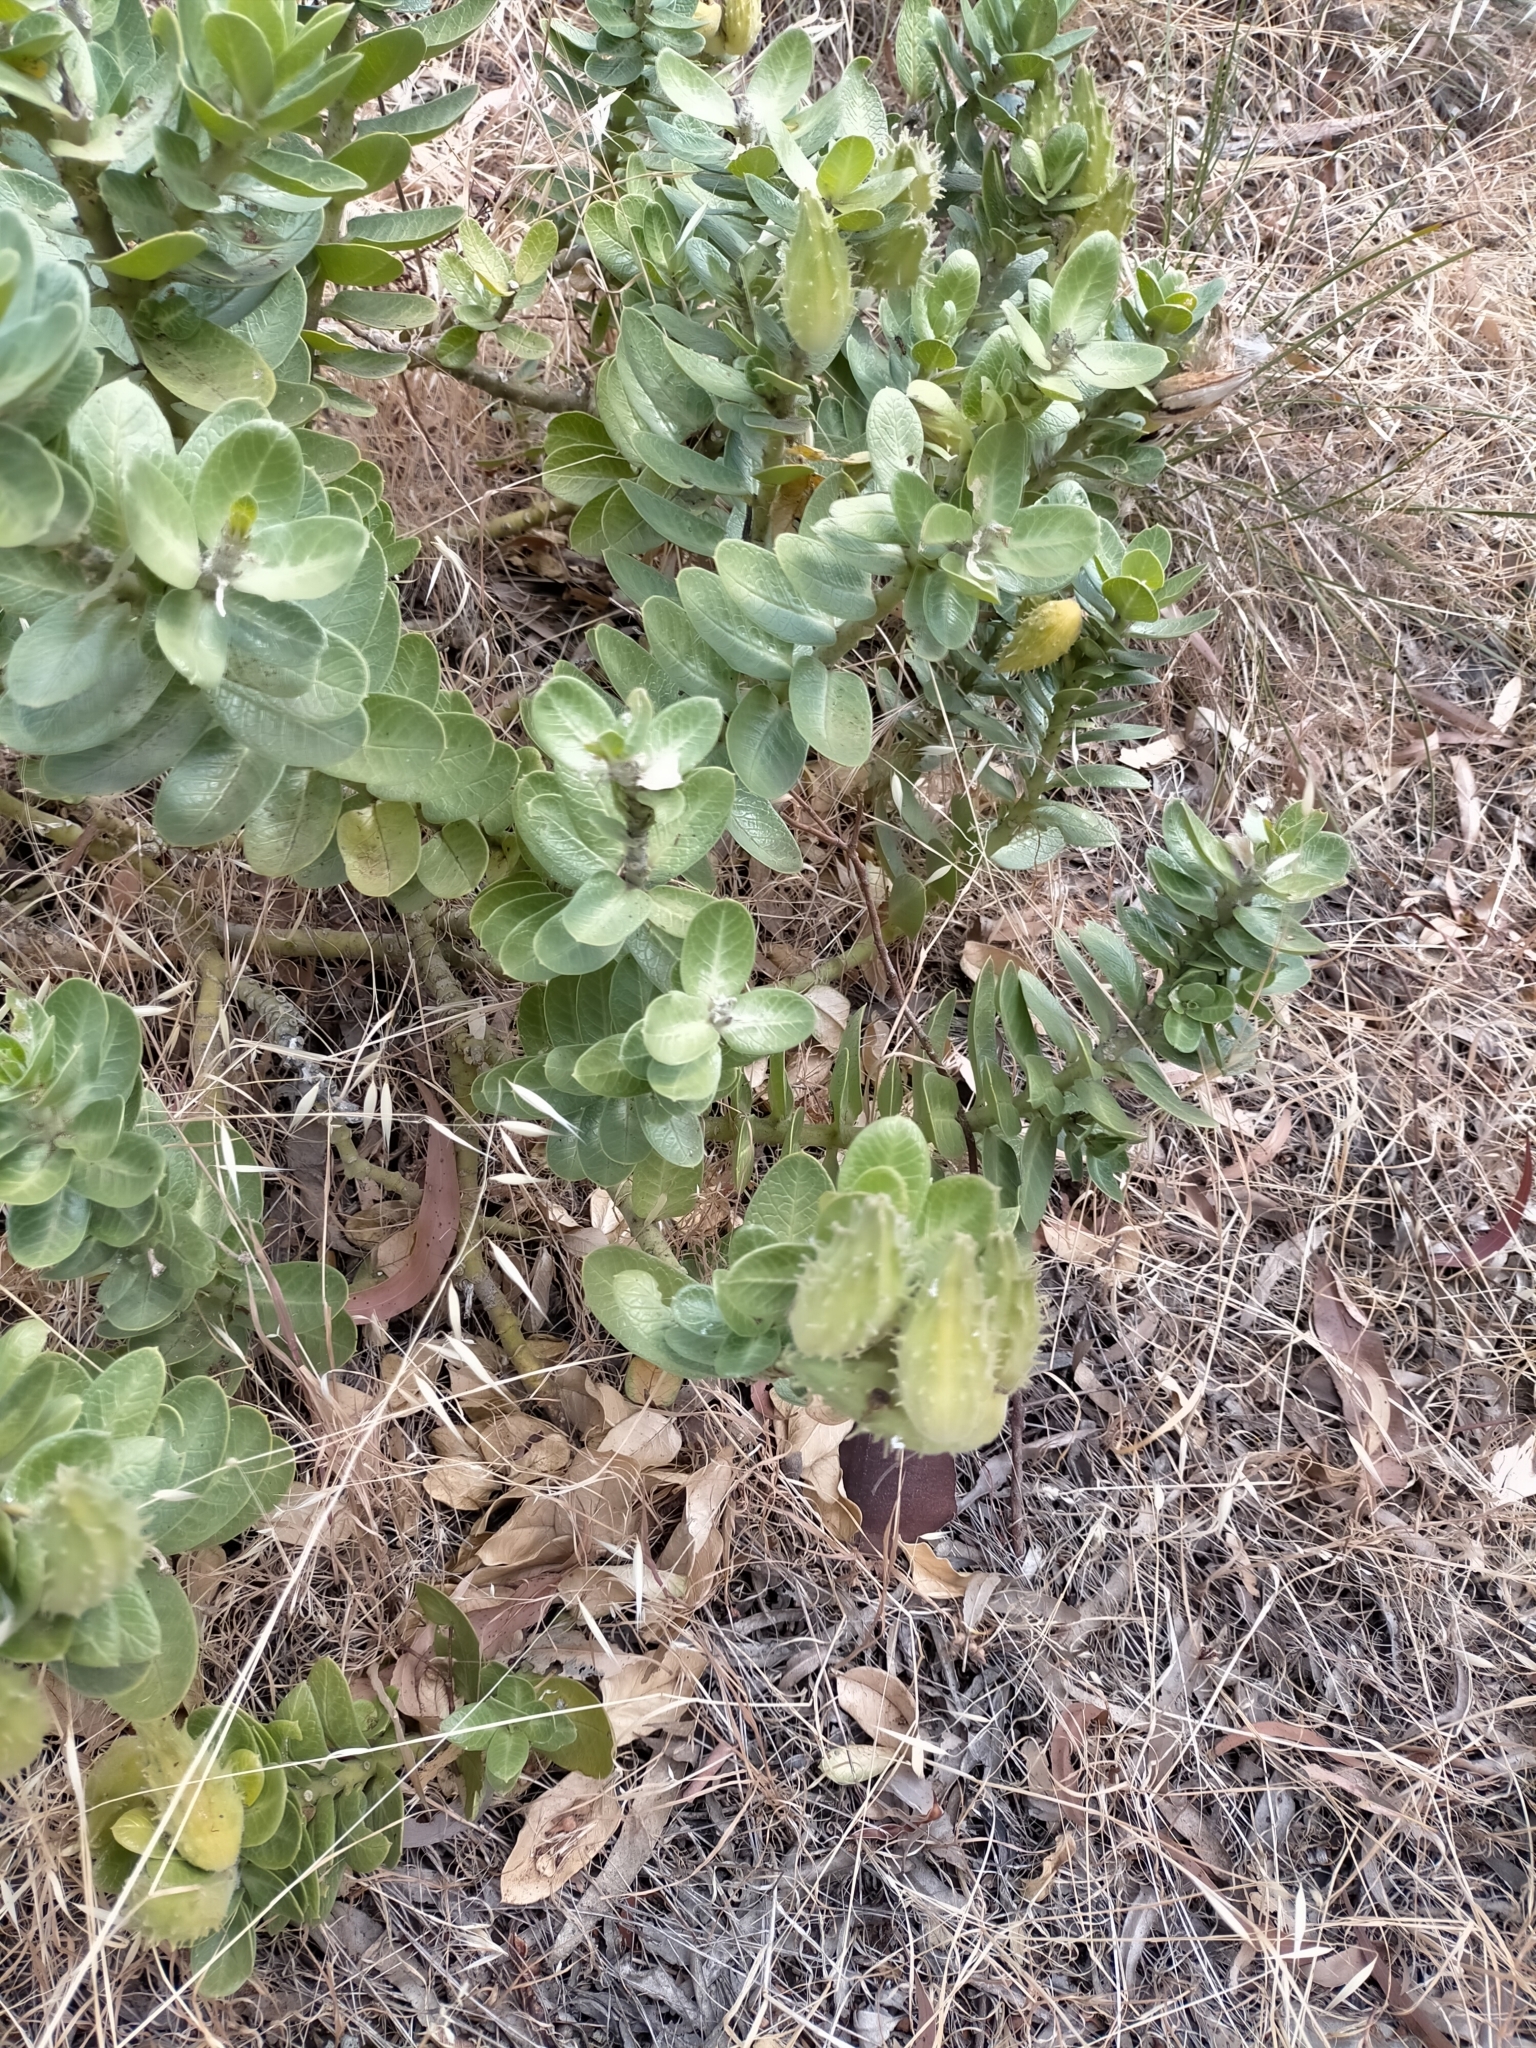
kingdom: Plantae
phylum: Tracheophyta
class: Magnoliopsida
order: Gentianales
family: Apocynaceae
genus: Gomphocarpus
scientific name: Gomphocarpus cancellatus
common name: Wild cotton
